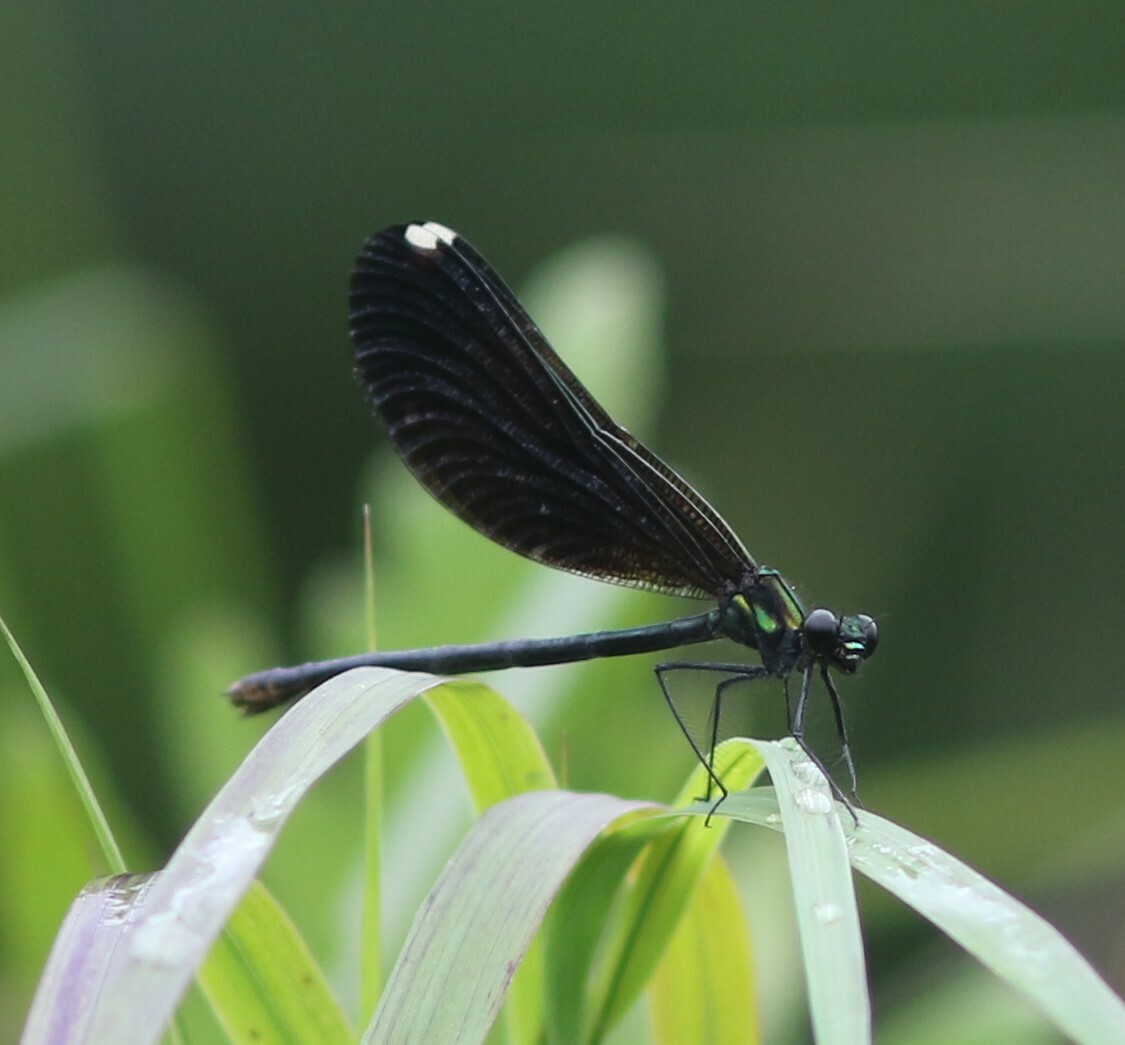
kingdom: Animalia
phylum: Arthropoda
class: Insecta
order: Odonata
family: Calopterygidae
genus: Calopteryx
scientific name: Calopteryx maculata
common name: Ebony jewelwing
